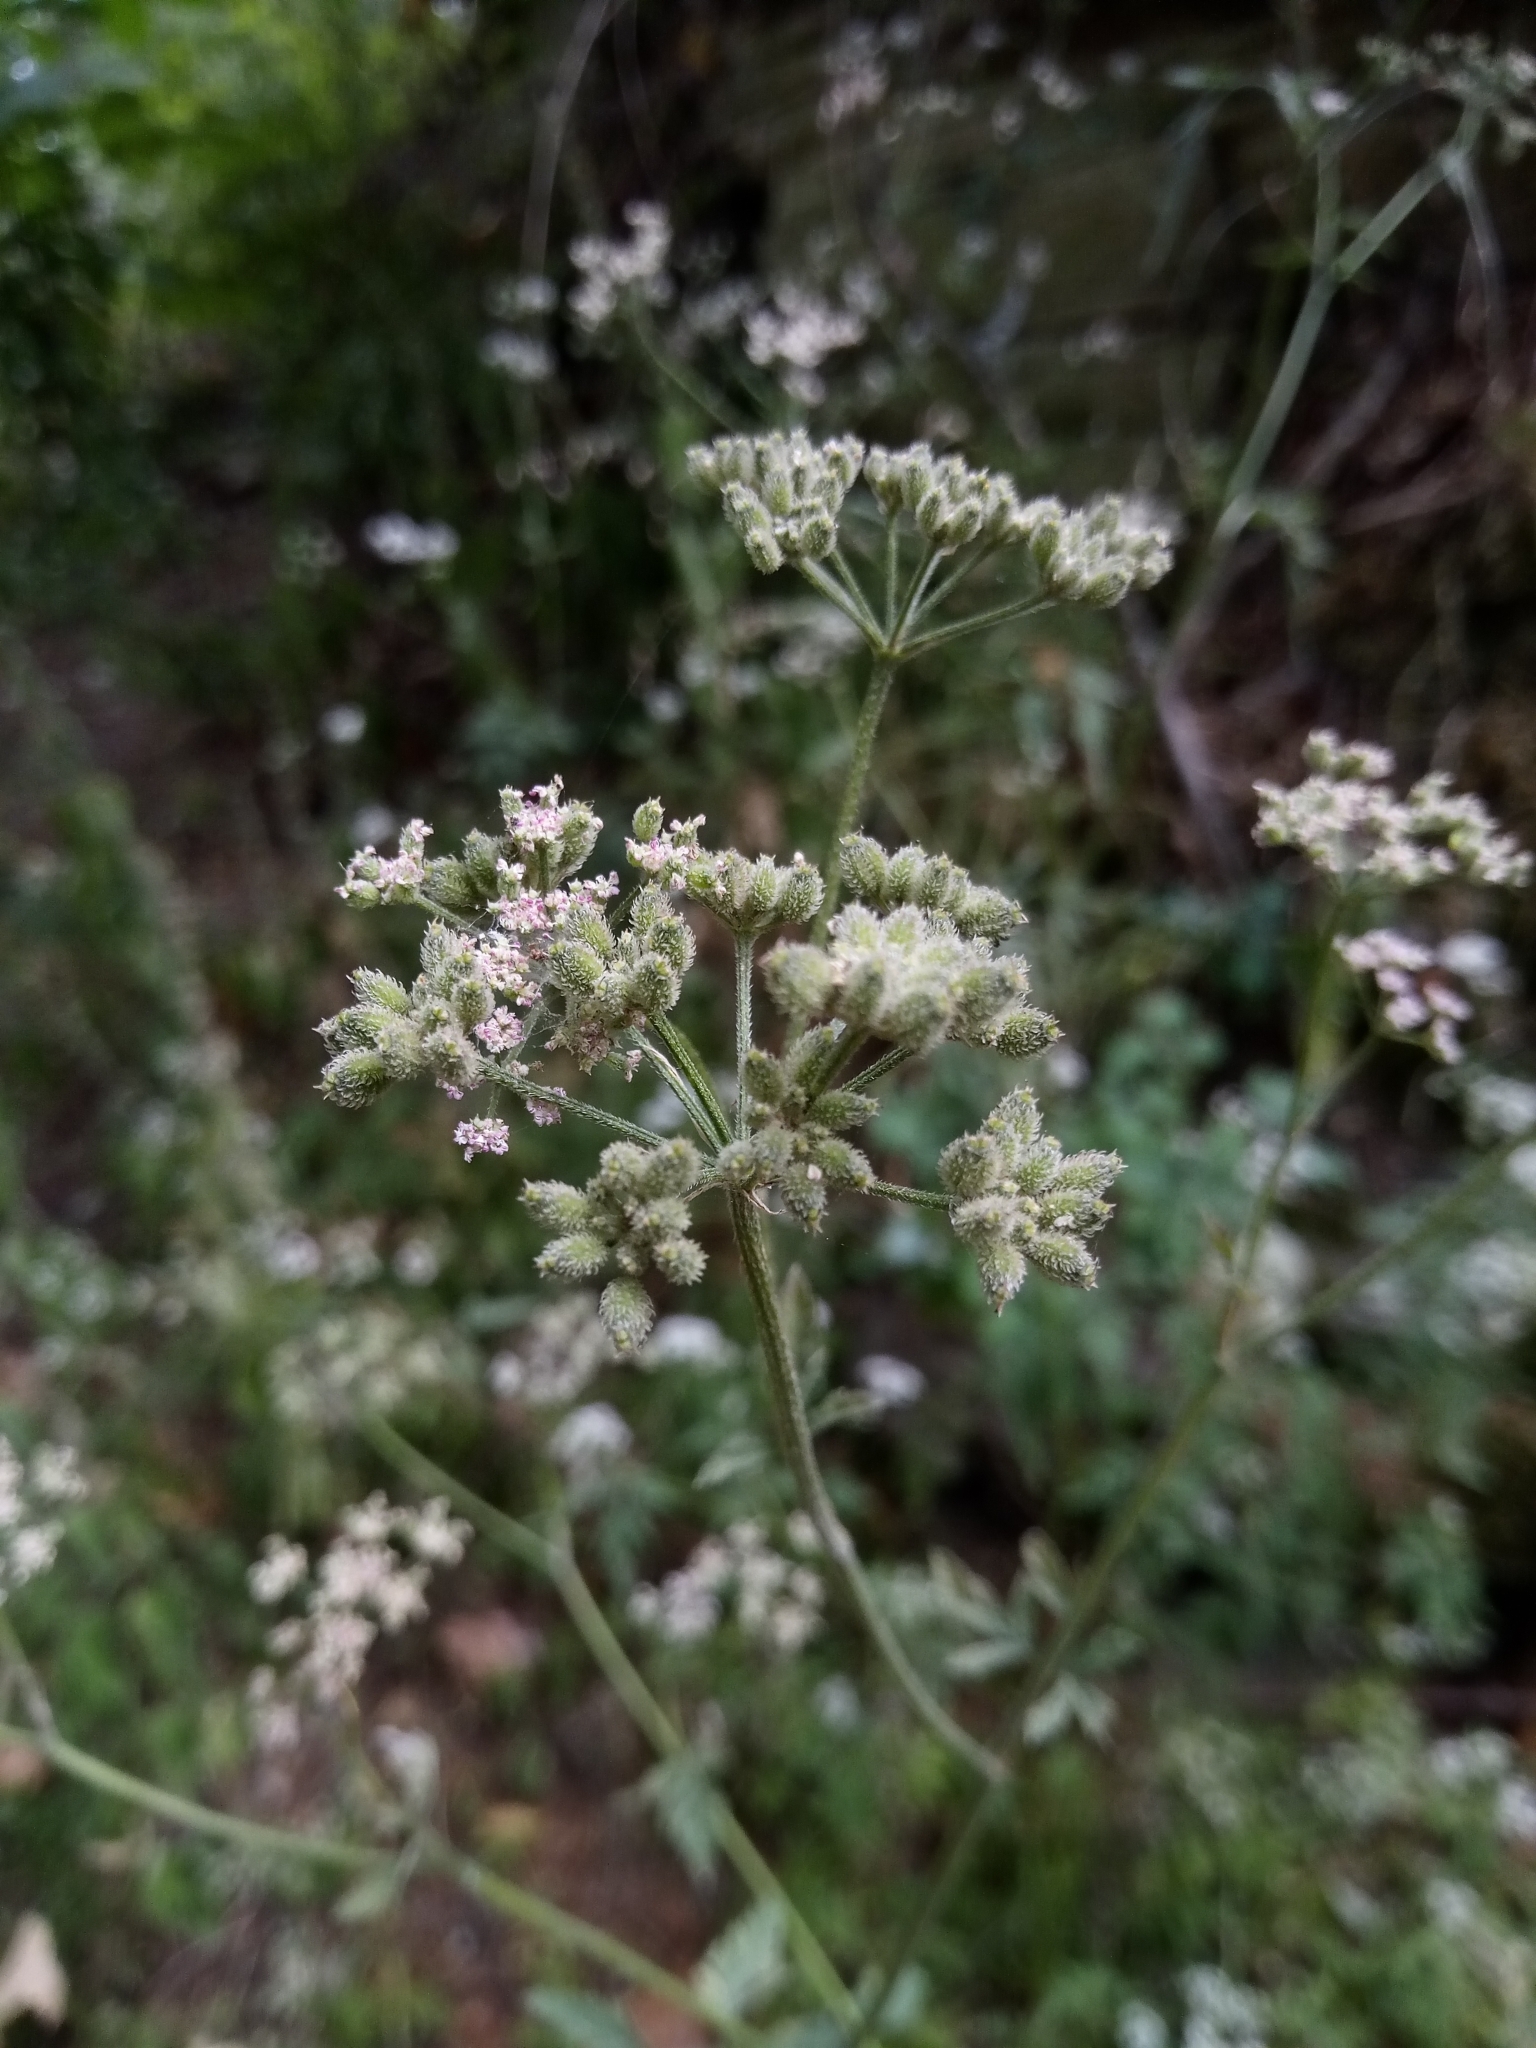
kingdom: Plantae
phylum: Tracheophyta
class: Magnoliopsida
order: Apiales
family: Apiaceae
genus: Torilis
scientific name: Torilis japonica
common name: Upright hedge-parsley
